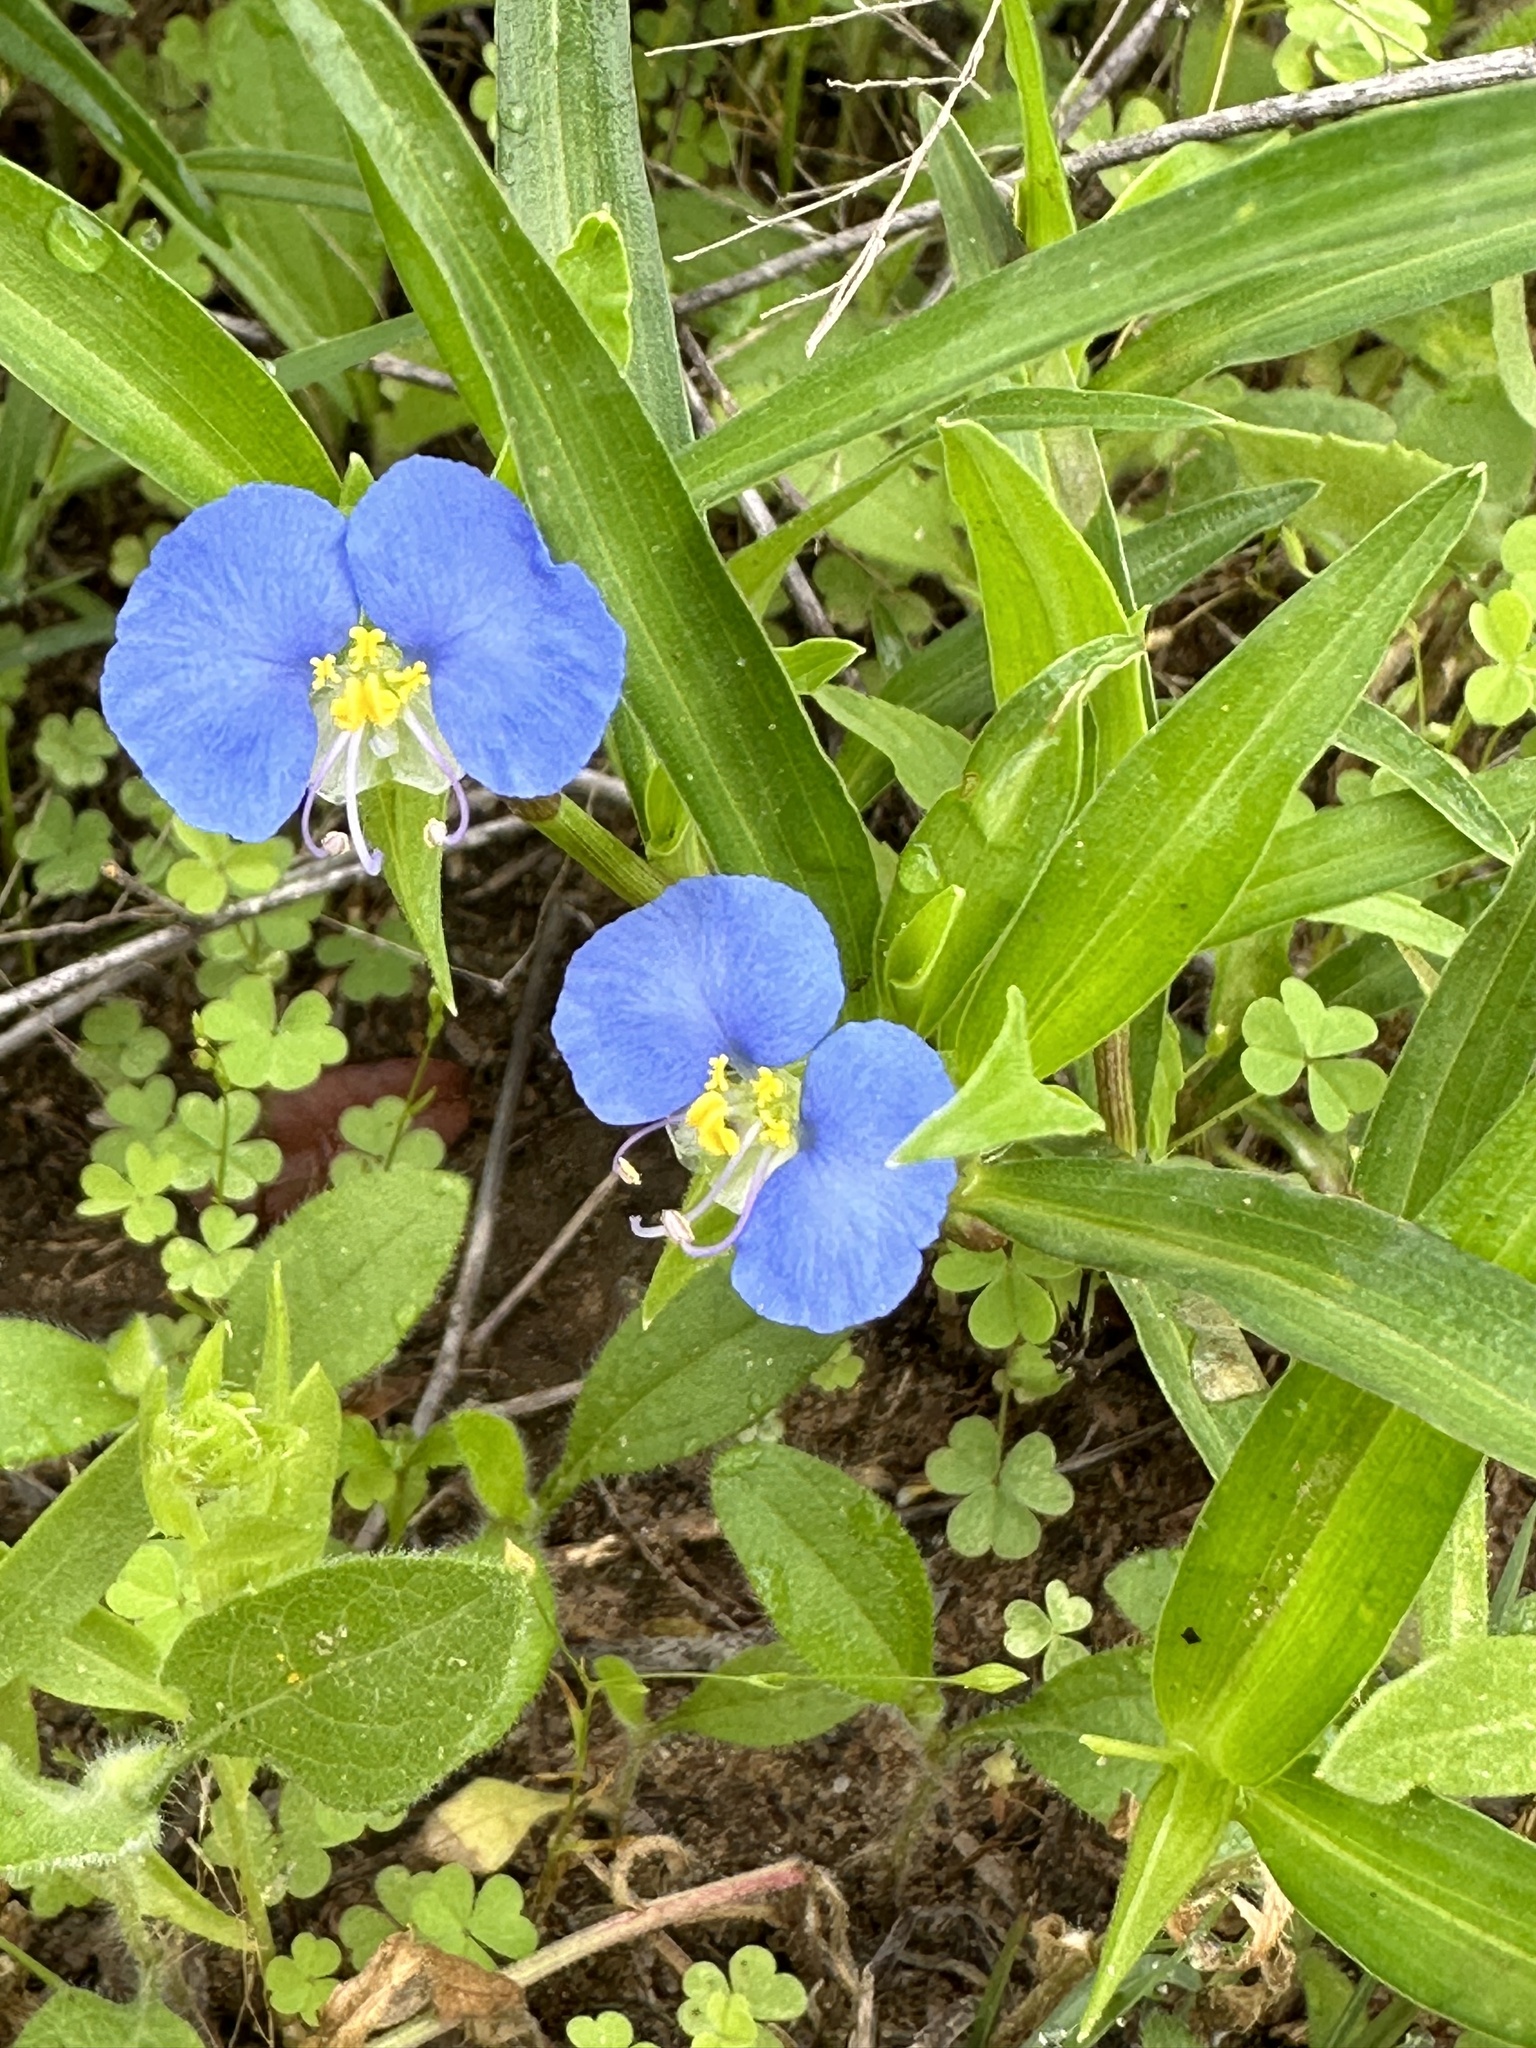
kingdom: Plantae
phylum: Tracheophyta
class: Liliopsida
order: Commelinales
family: Commelinaceae
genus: Commelina
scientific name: Commelina erecta
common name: Blousel blommetjie
